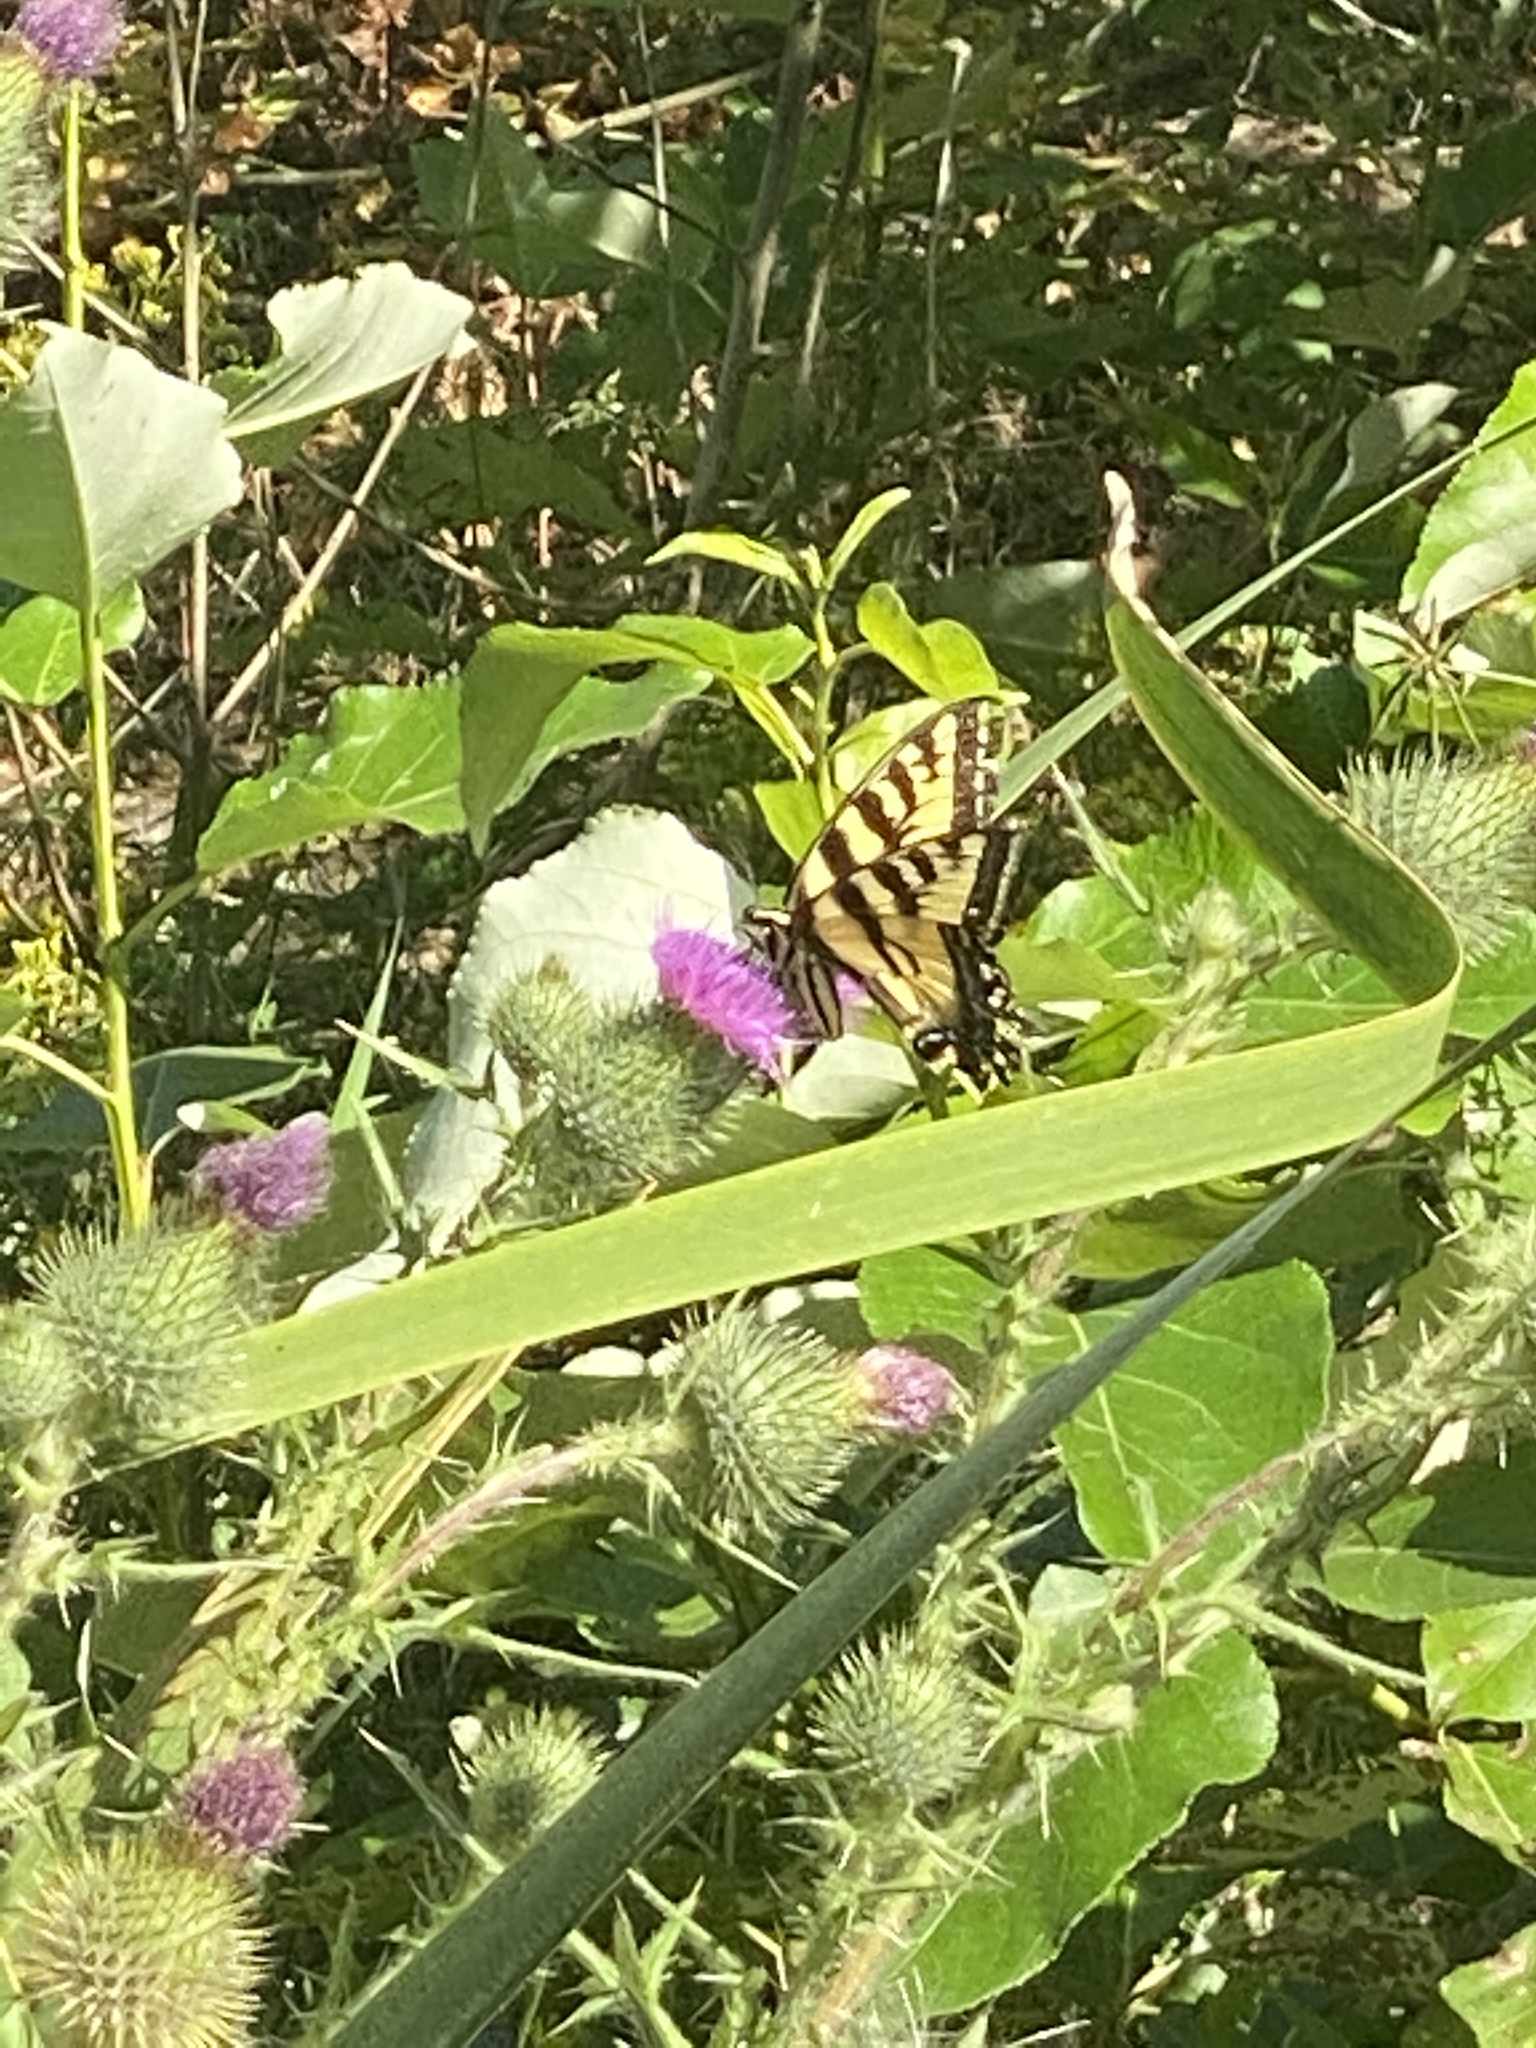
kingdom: Animalia
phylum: Arthropoda
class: Insecta
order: Lepidoptera
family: Papilionidae
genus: Papilio
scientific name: Papilio rutulus
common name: Western tiger swallowtail
